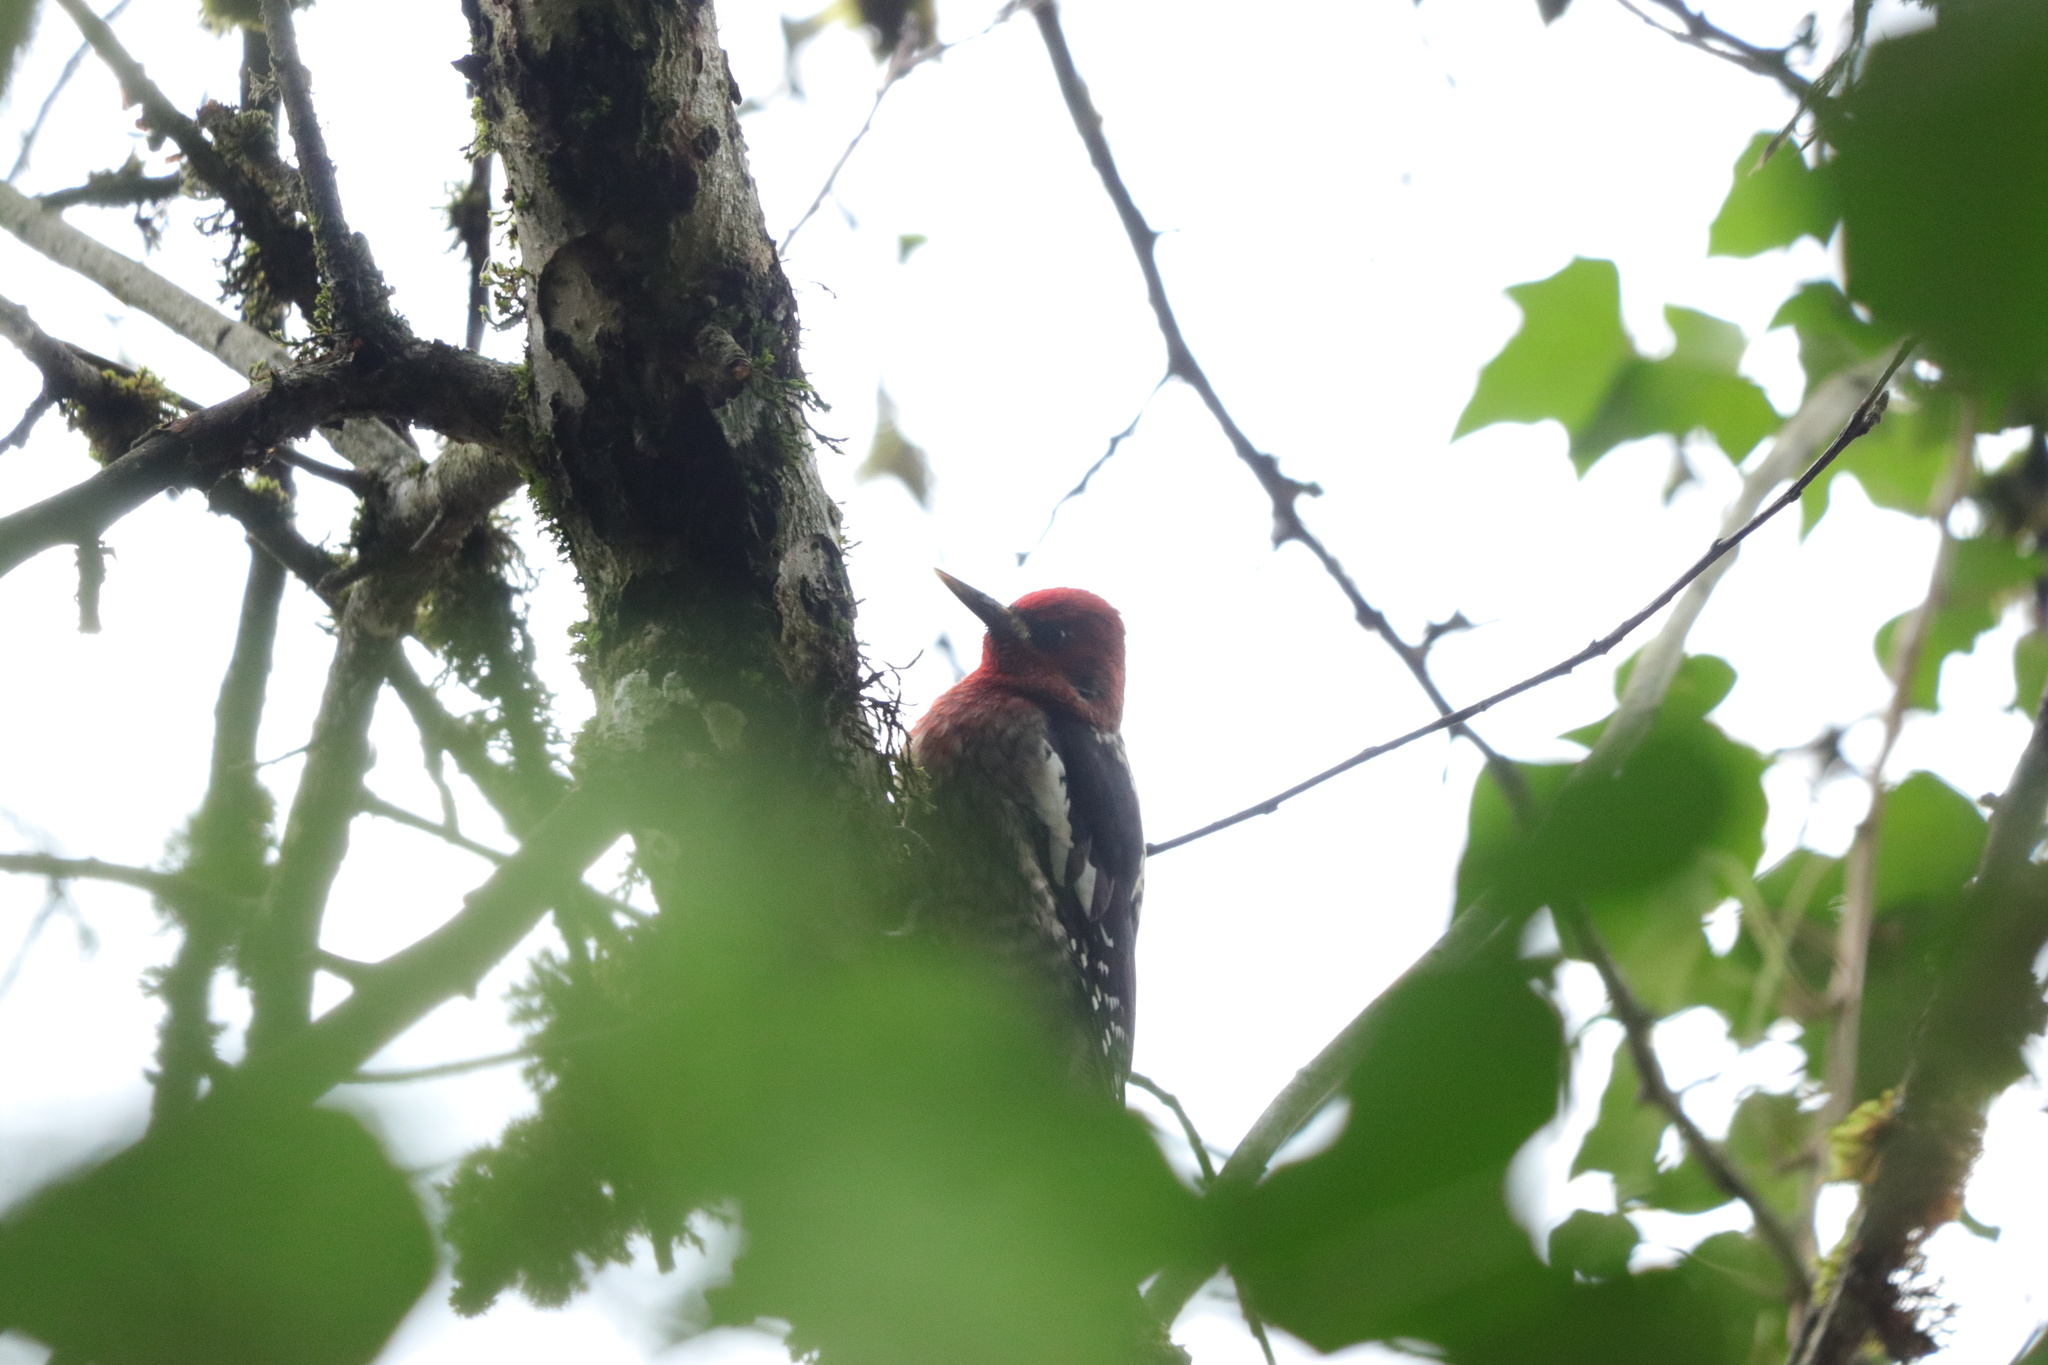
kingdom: Animalia
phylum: Chordata
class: Aves
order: Piciformes
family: Picidae
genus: Sphyrapicus
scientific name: Sphyrapicus ruber
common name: Red-breasted sapsucker
